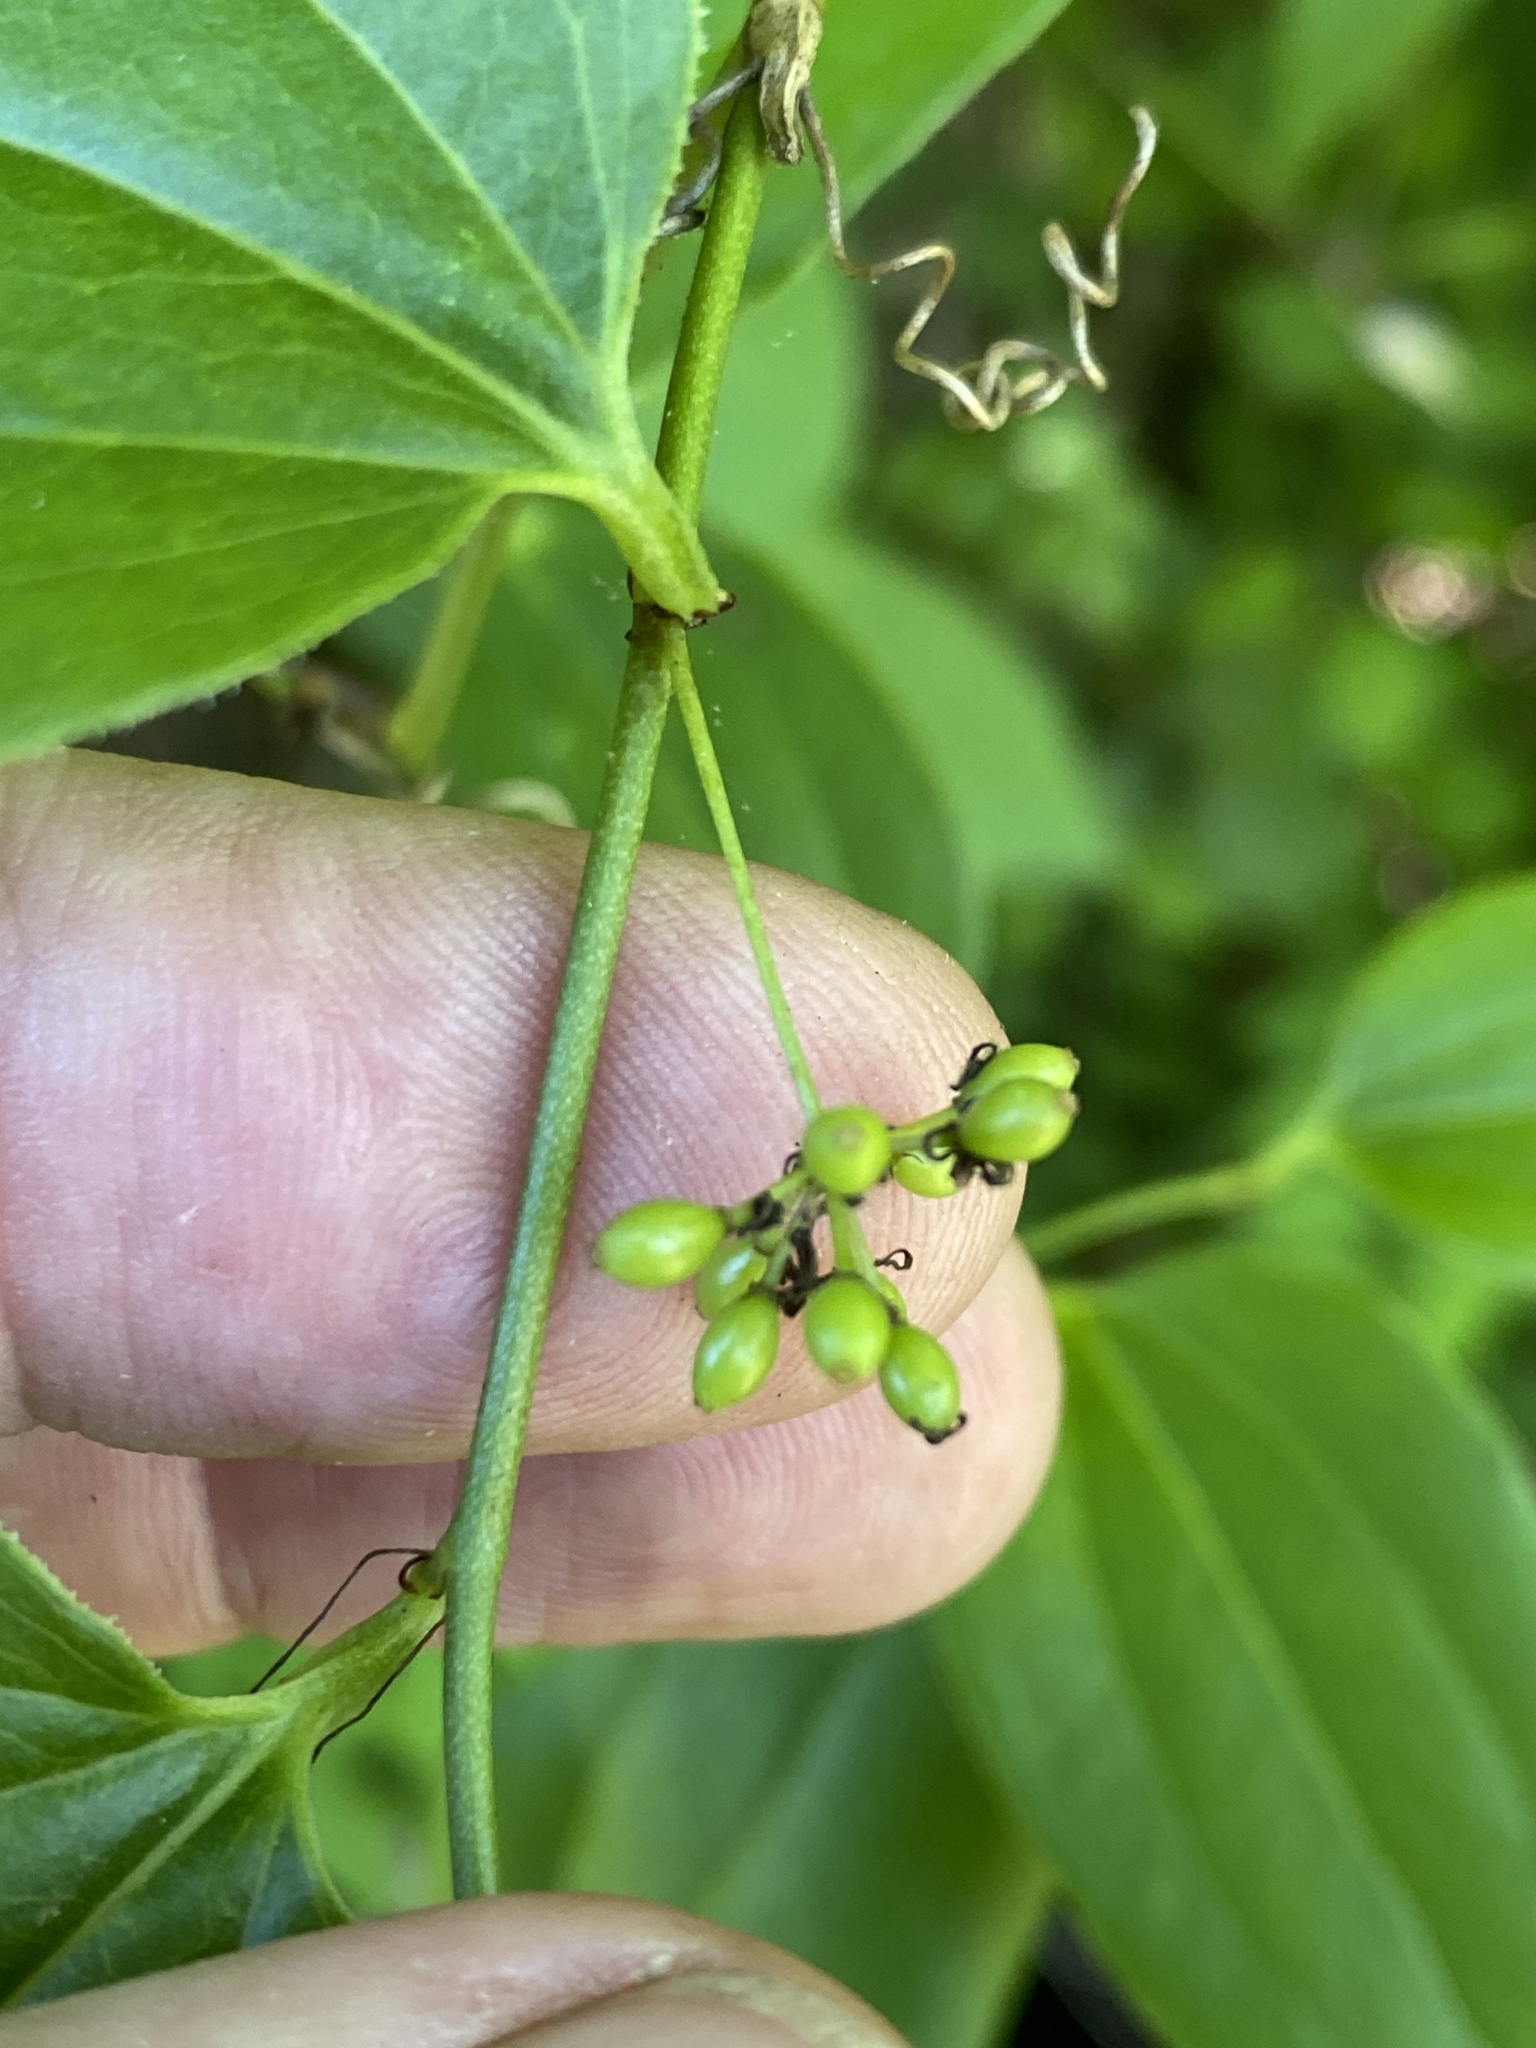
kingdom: Plantae
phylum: Tracheophyta
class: Liliopsida
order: Liliales
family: Smilacaceae
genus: Smilax
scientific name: Smilax tamnoides
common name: Hellfetter
